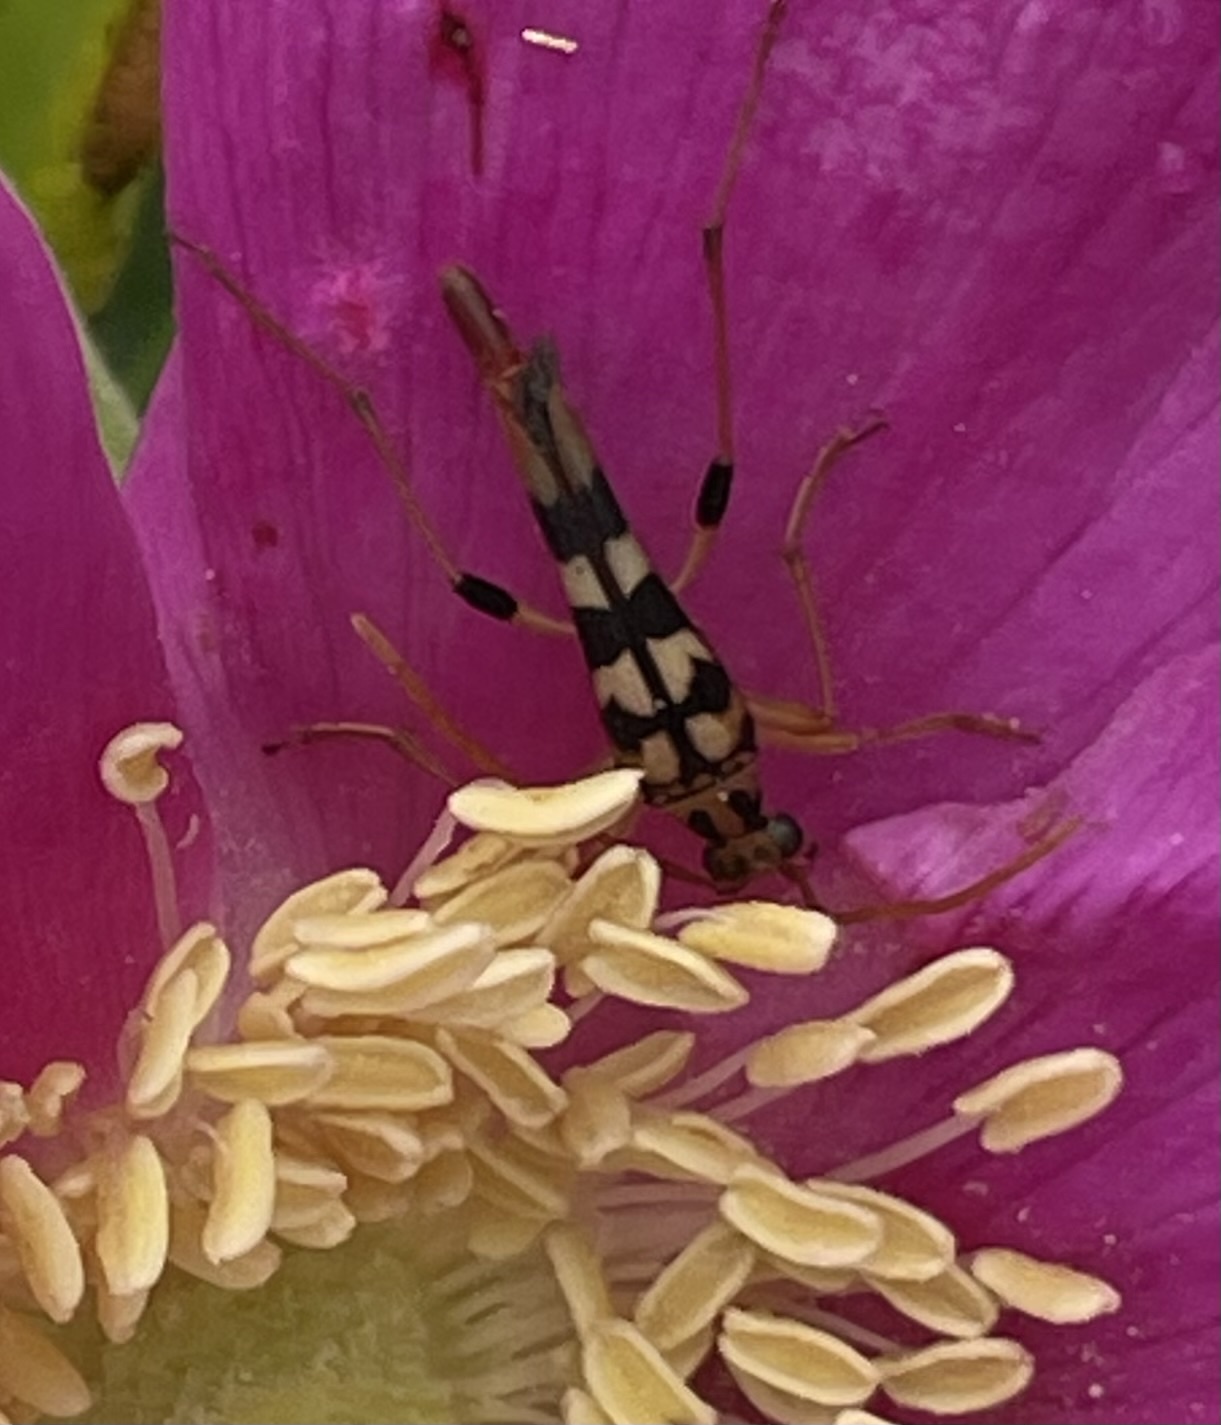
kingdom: Animalia
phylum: Arthropoda
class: Insecta
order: Coleoptera
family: Cerambycidae
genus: Strangalia
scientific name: Strangalia luteicornis
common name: Yellow-horned flower longhorn beetle
